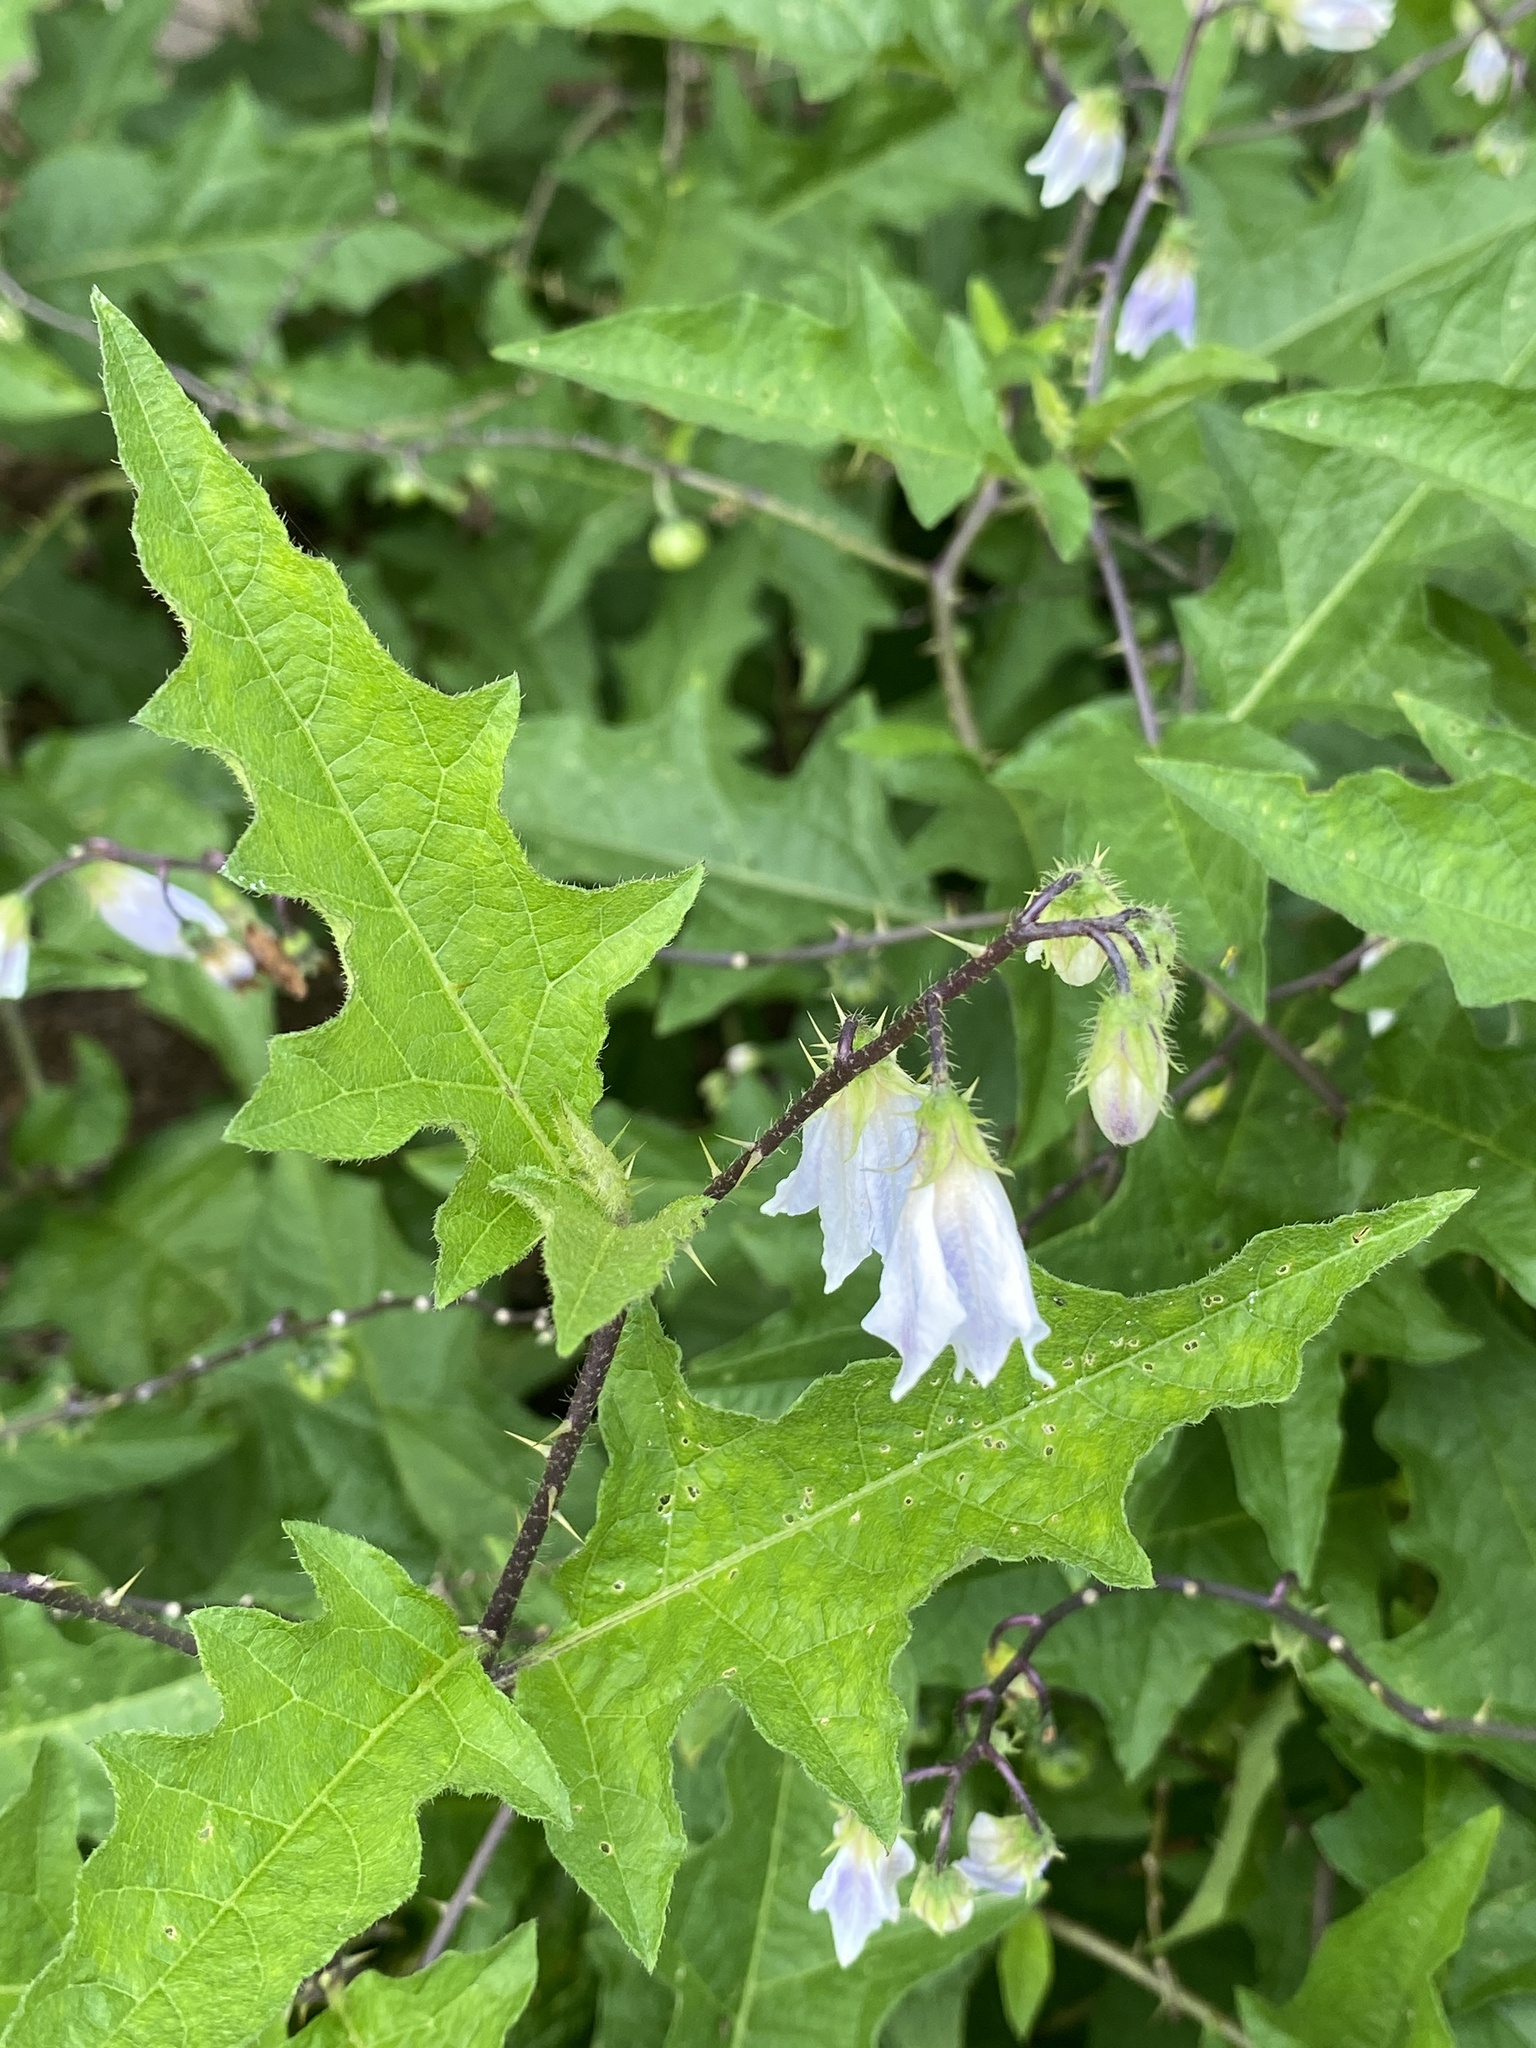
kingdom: Plantae
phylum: Tracheophyta
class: Magnoliopsida
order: Solanales
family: Solanaceae
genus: Solanum
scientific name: Solanum carolinense
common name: Horse-nettle
